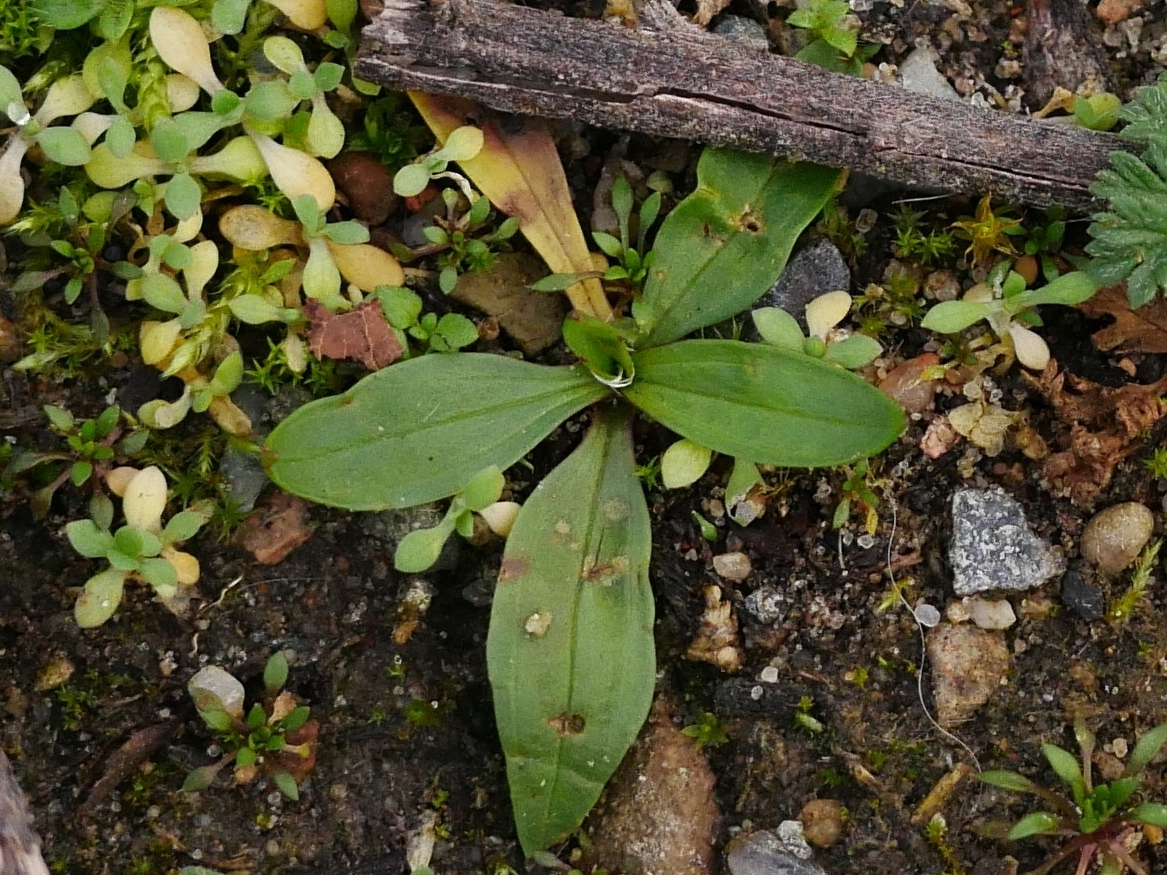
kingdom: Plantae
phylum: Tracheophyta
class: Magnoliopsida
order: Lamiales
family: Plantaginaceae
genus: Plantago
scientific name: Plantago lanceolata
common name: Ribwort plantain
